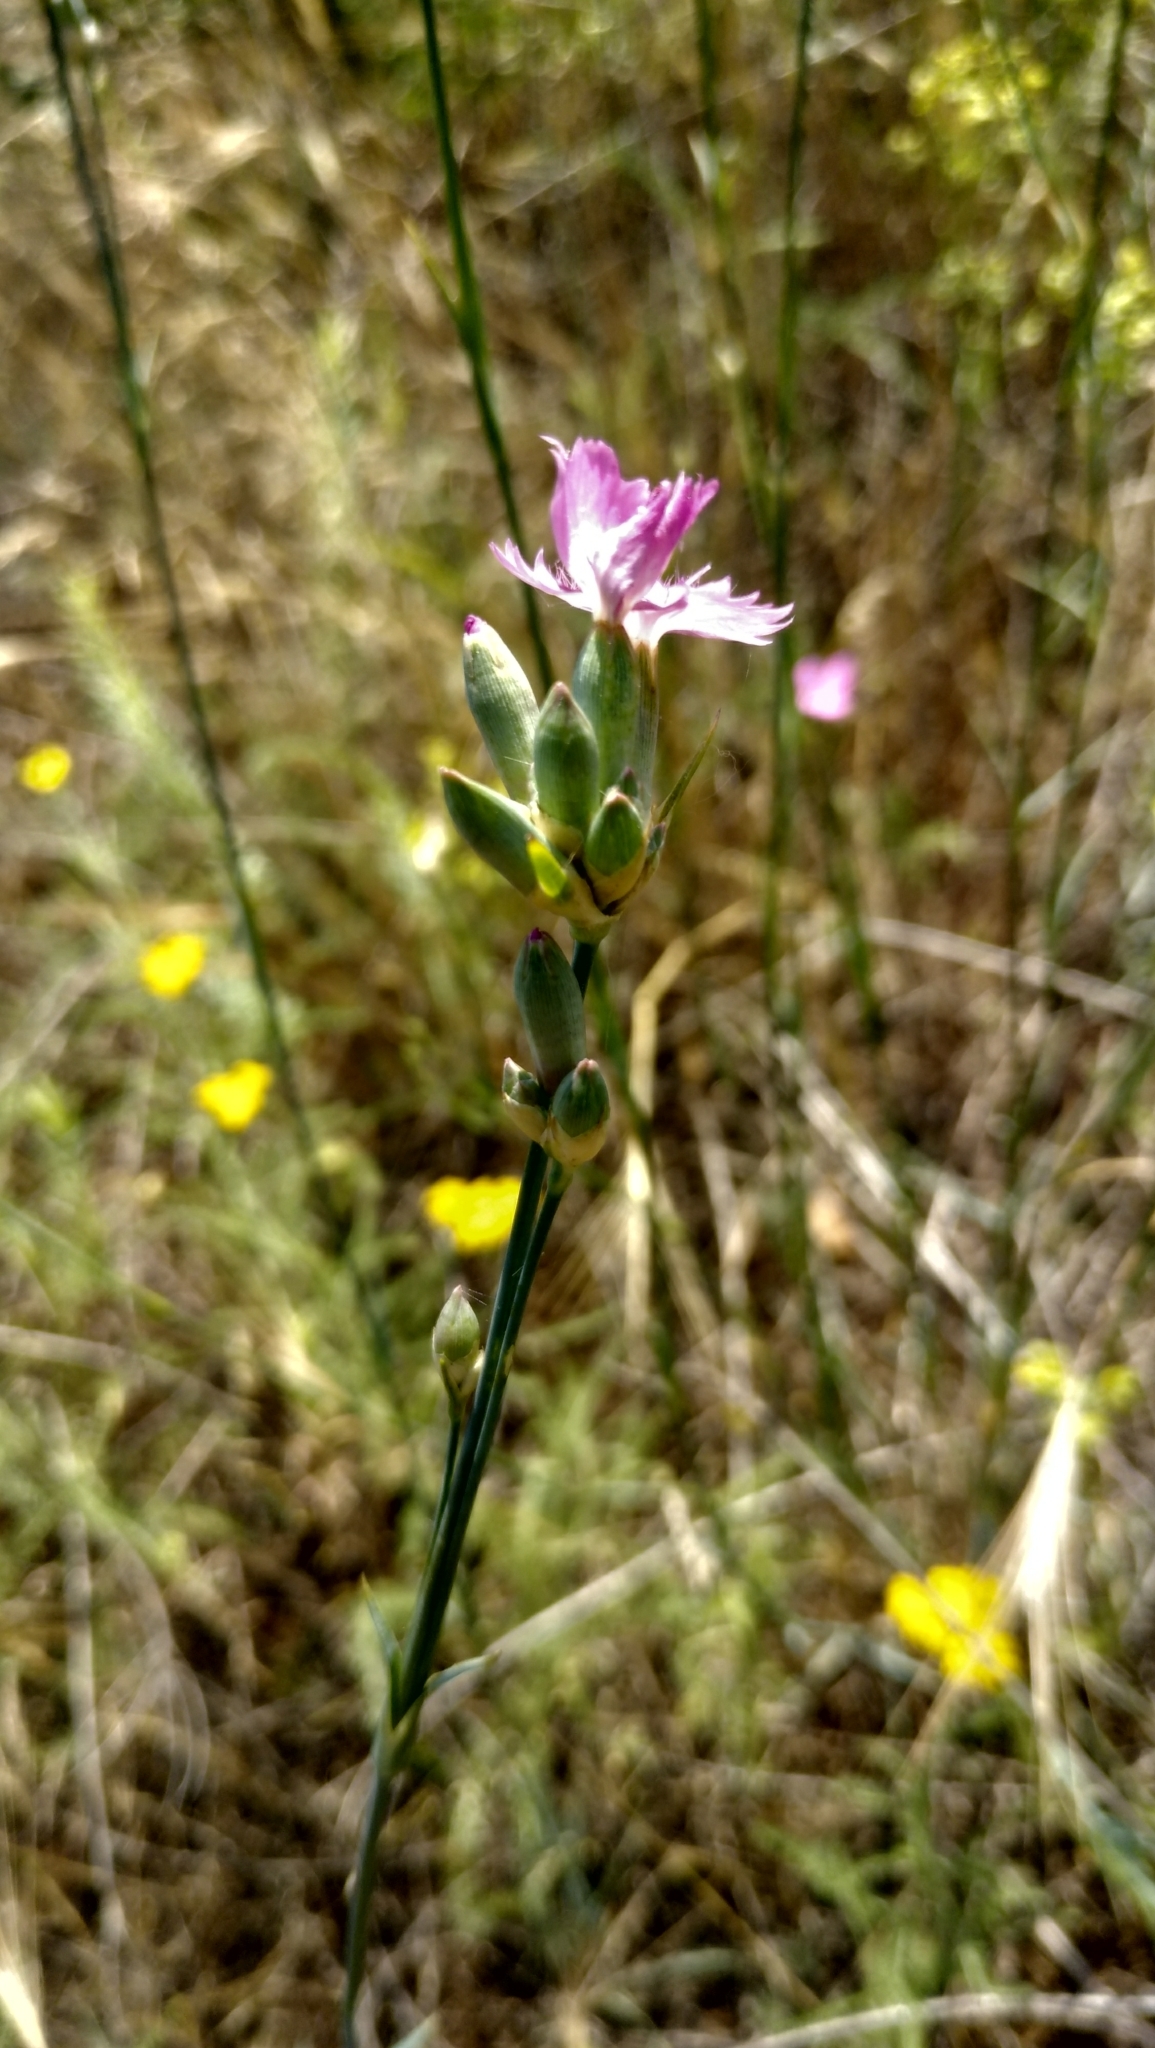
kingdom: Plantae
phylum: Tracheophyta
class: Magnoliopsida
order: Caryophyllales
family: Caryophyllaceae
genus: Dianthus
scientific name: Dianthus polymorphus
